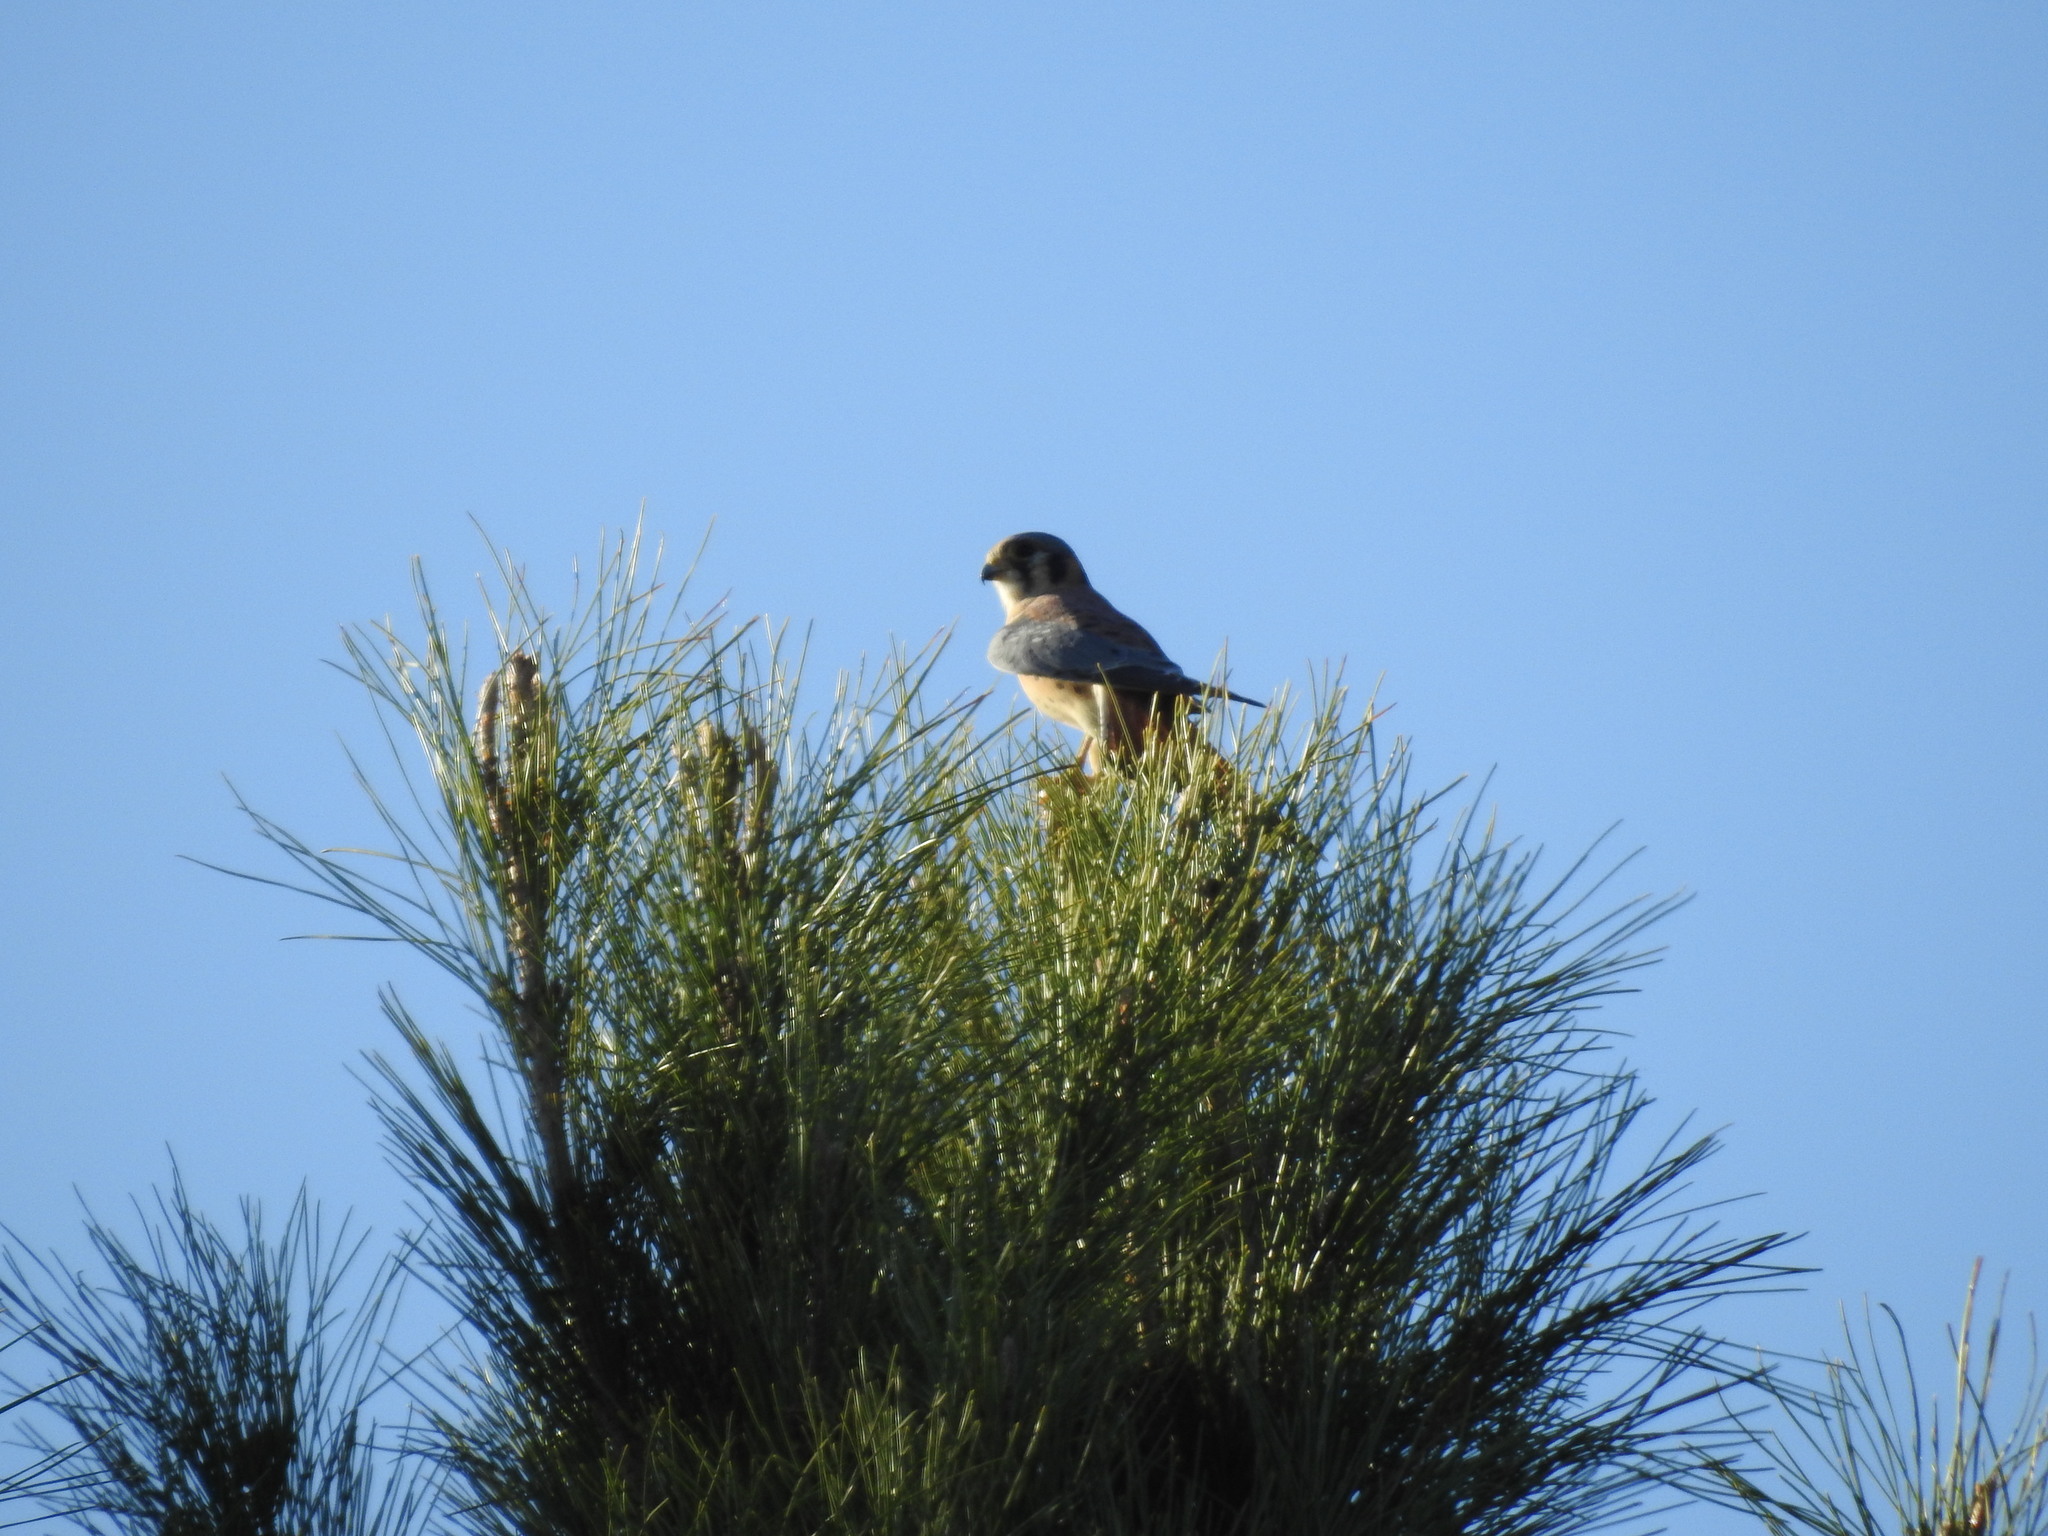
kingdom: Animalia
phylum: Chordata
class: Aves
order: Falconiformes
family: Falconidae
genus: Falco
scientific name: Falco sparverius
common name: American kestrel
